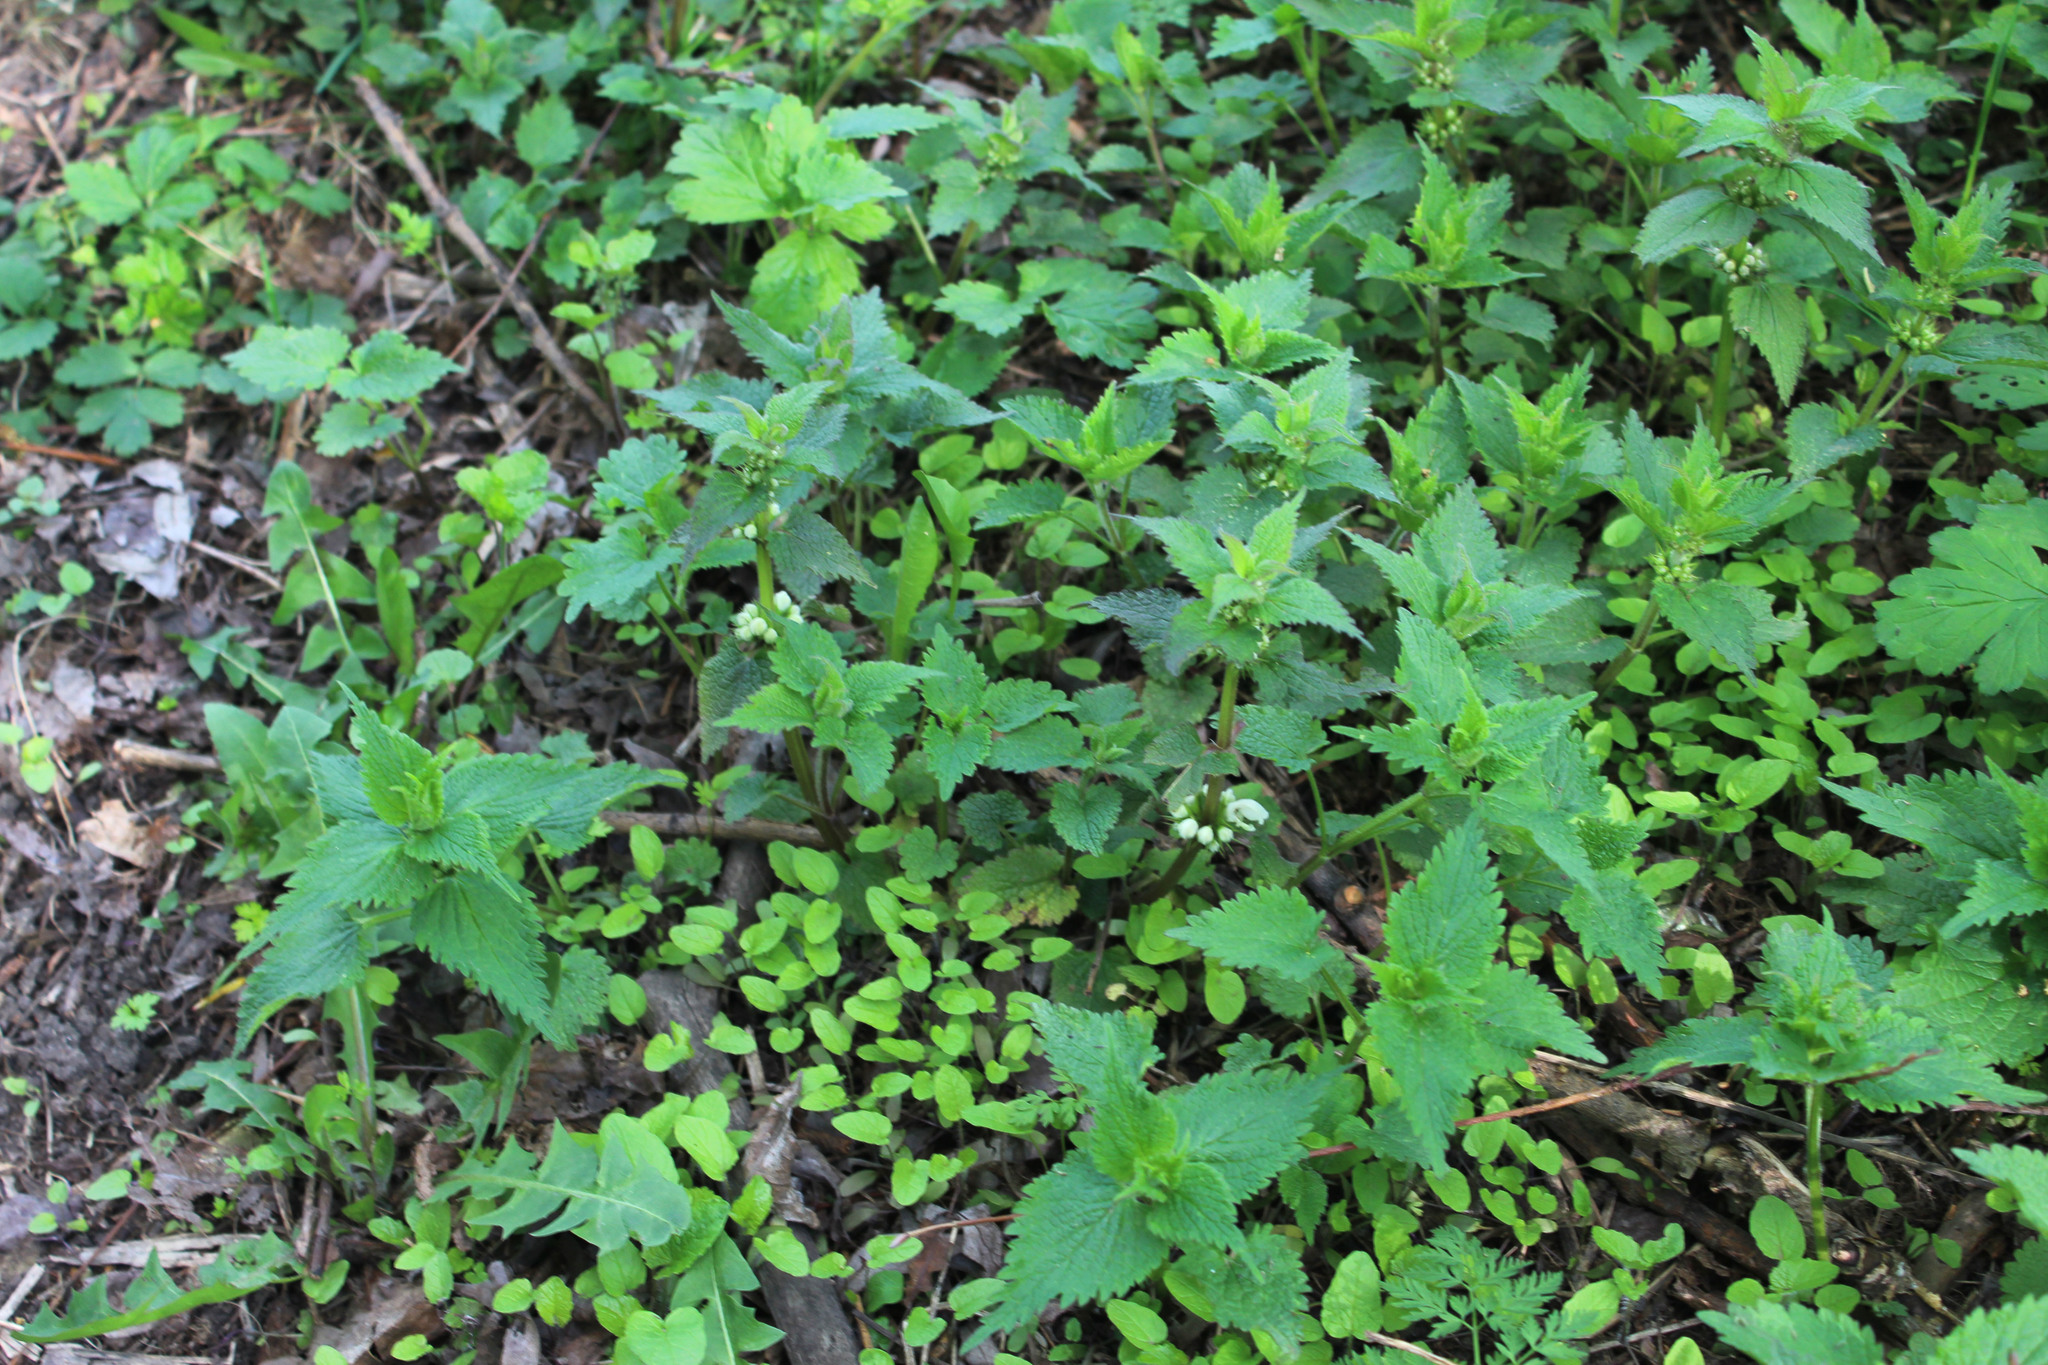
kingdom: Plantae
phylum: Tracheophyta
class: Magnoliopsida
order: Lamiales
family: Lamiaceae
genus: Lamium
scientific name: Lamium album
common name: White dead-nettle
